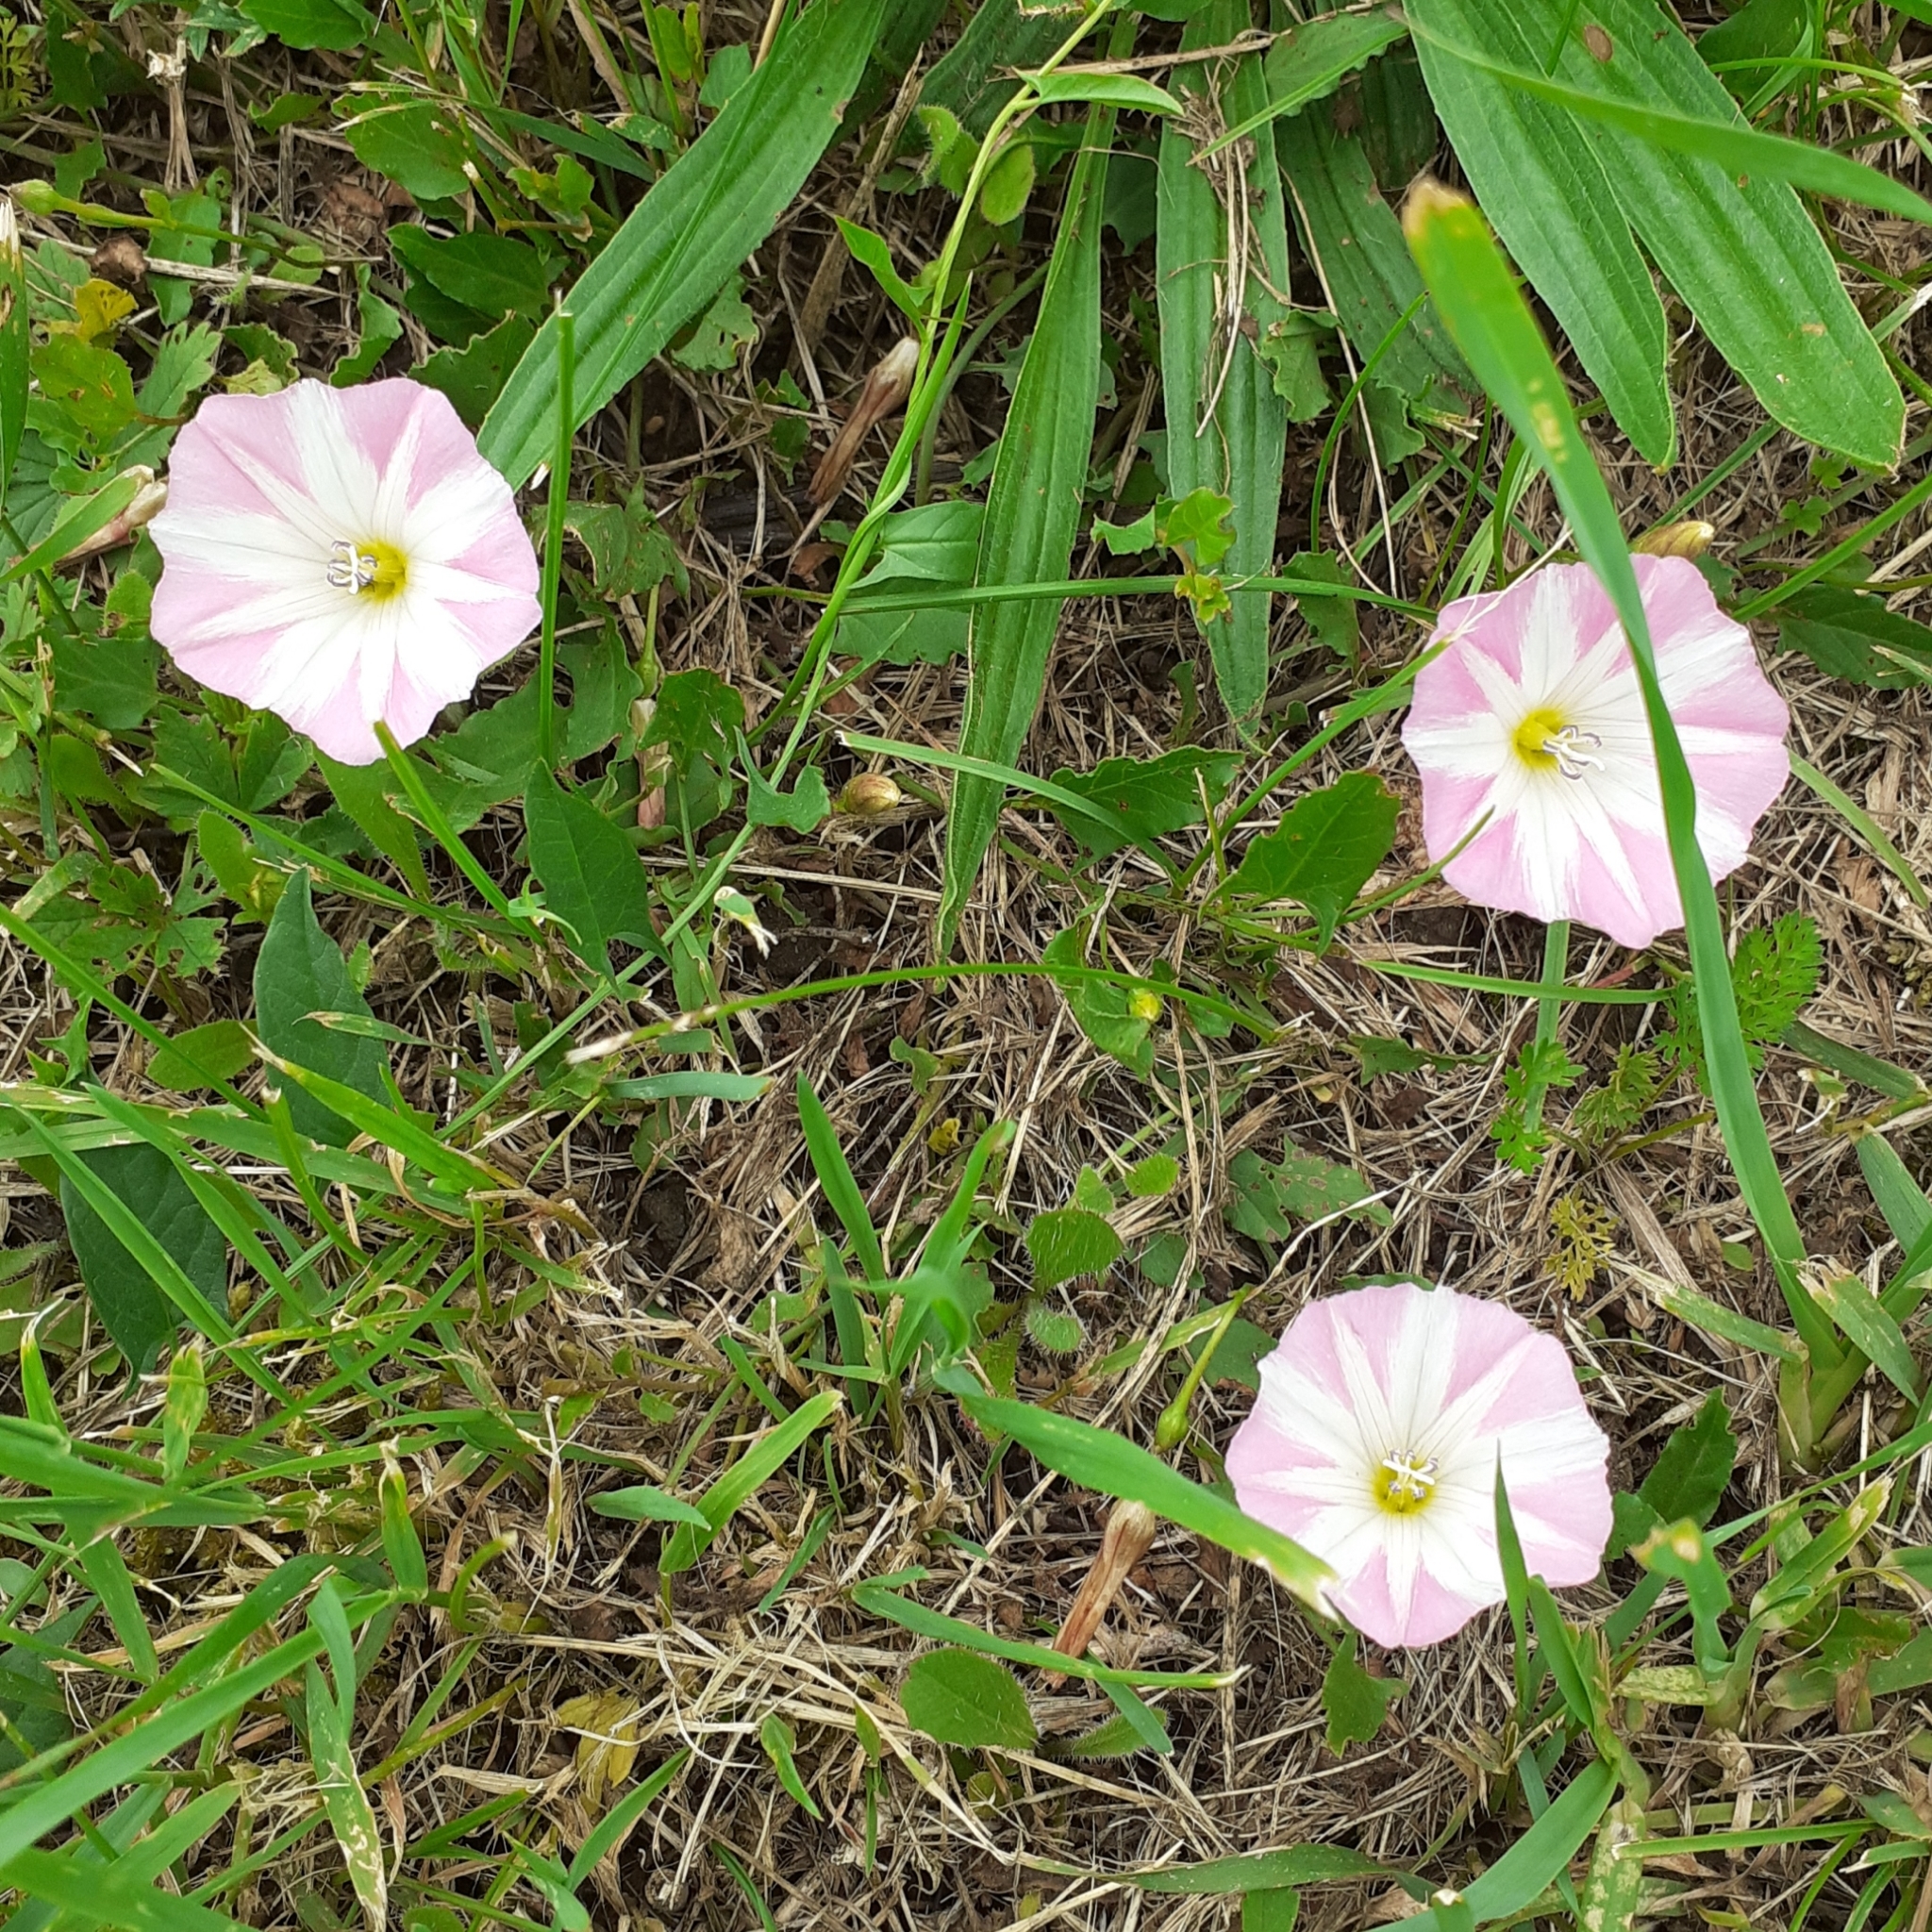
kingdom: Plantae
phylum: Tracheophyta
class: Magnoliopsida
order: Solanales
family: Convolvulaceae
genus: Convolvulus
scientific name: Convolvulus arvensis
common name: Field bindweed
